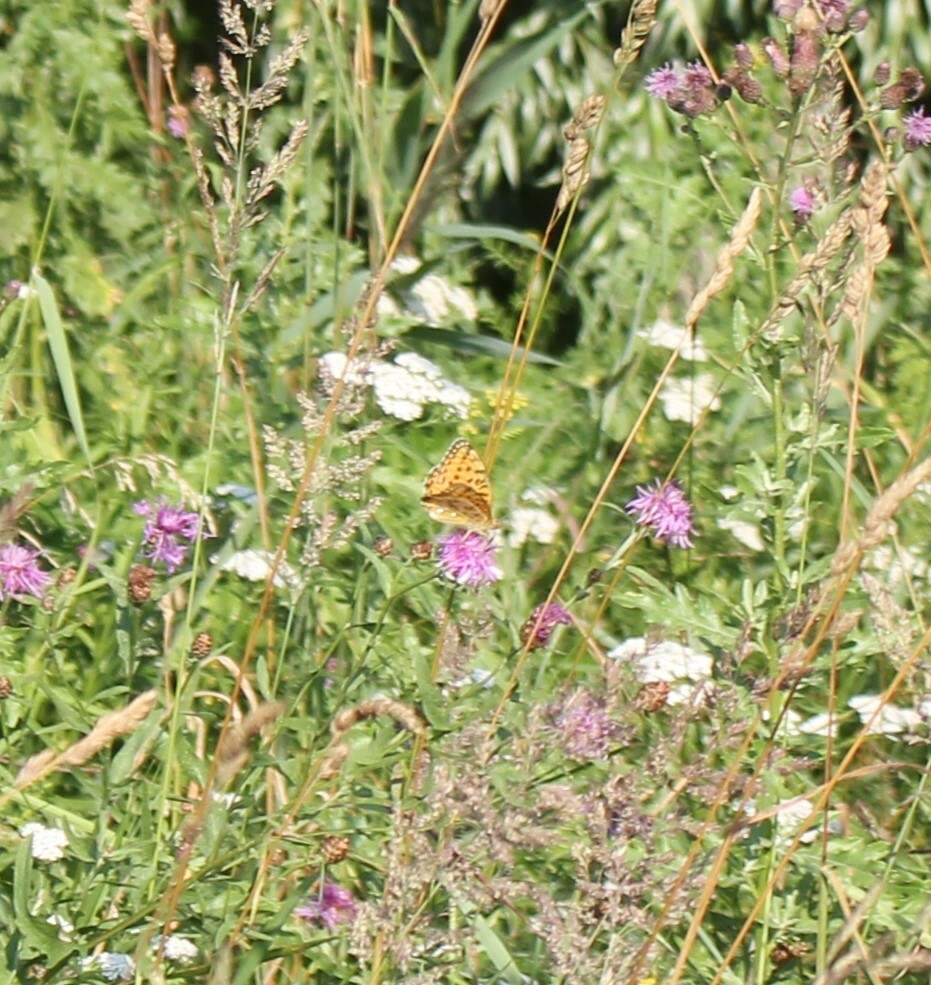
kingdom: Animalia
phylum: Arthropoda
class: Insecta
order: Lepidoptera
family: Nymphalidae
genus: Speyeria
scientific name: Speyeria aglaja
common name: Dark green fritillary
